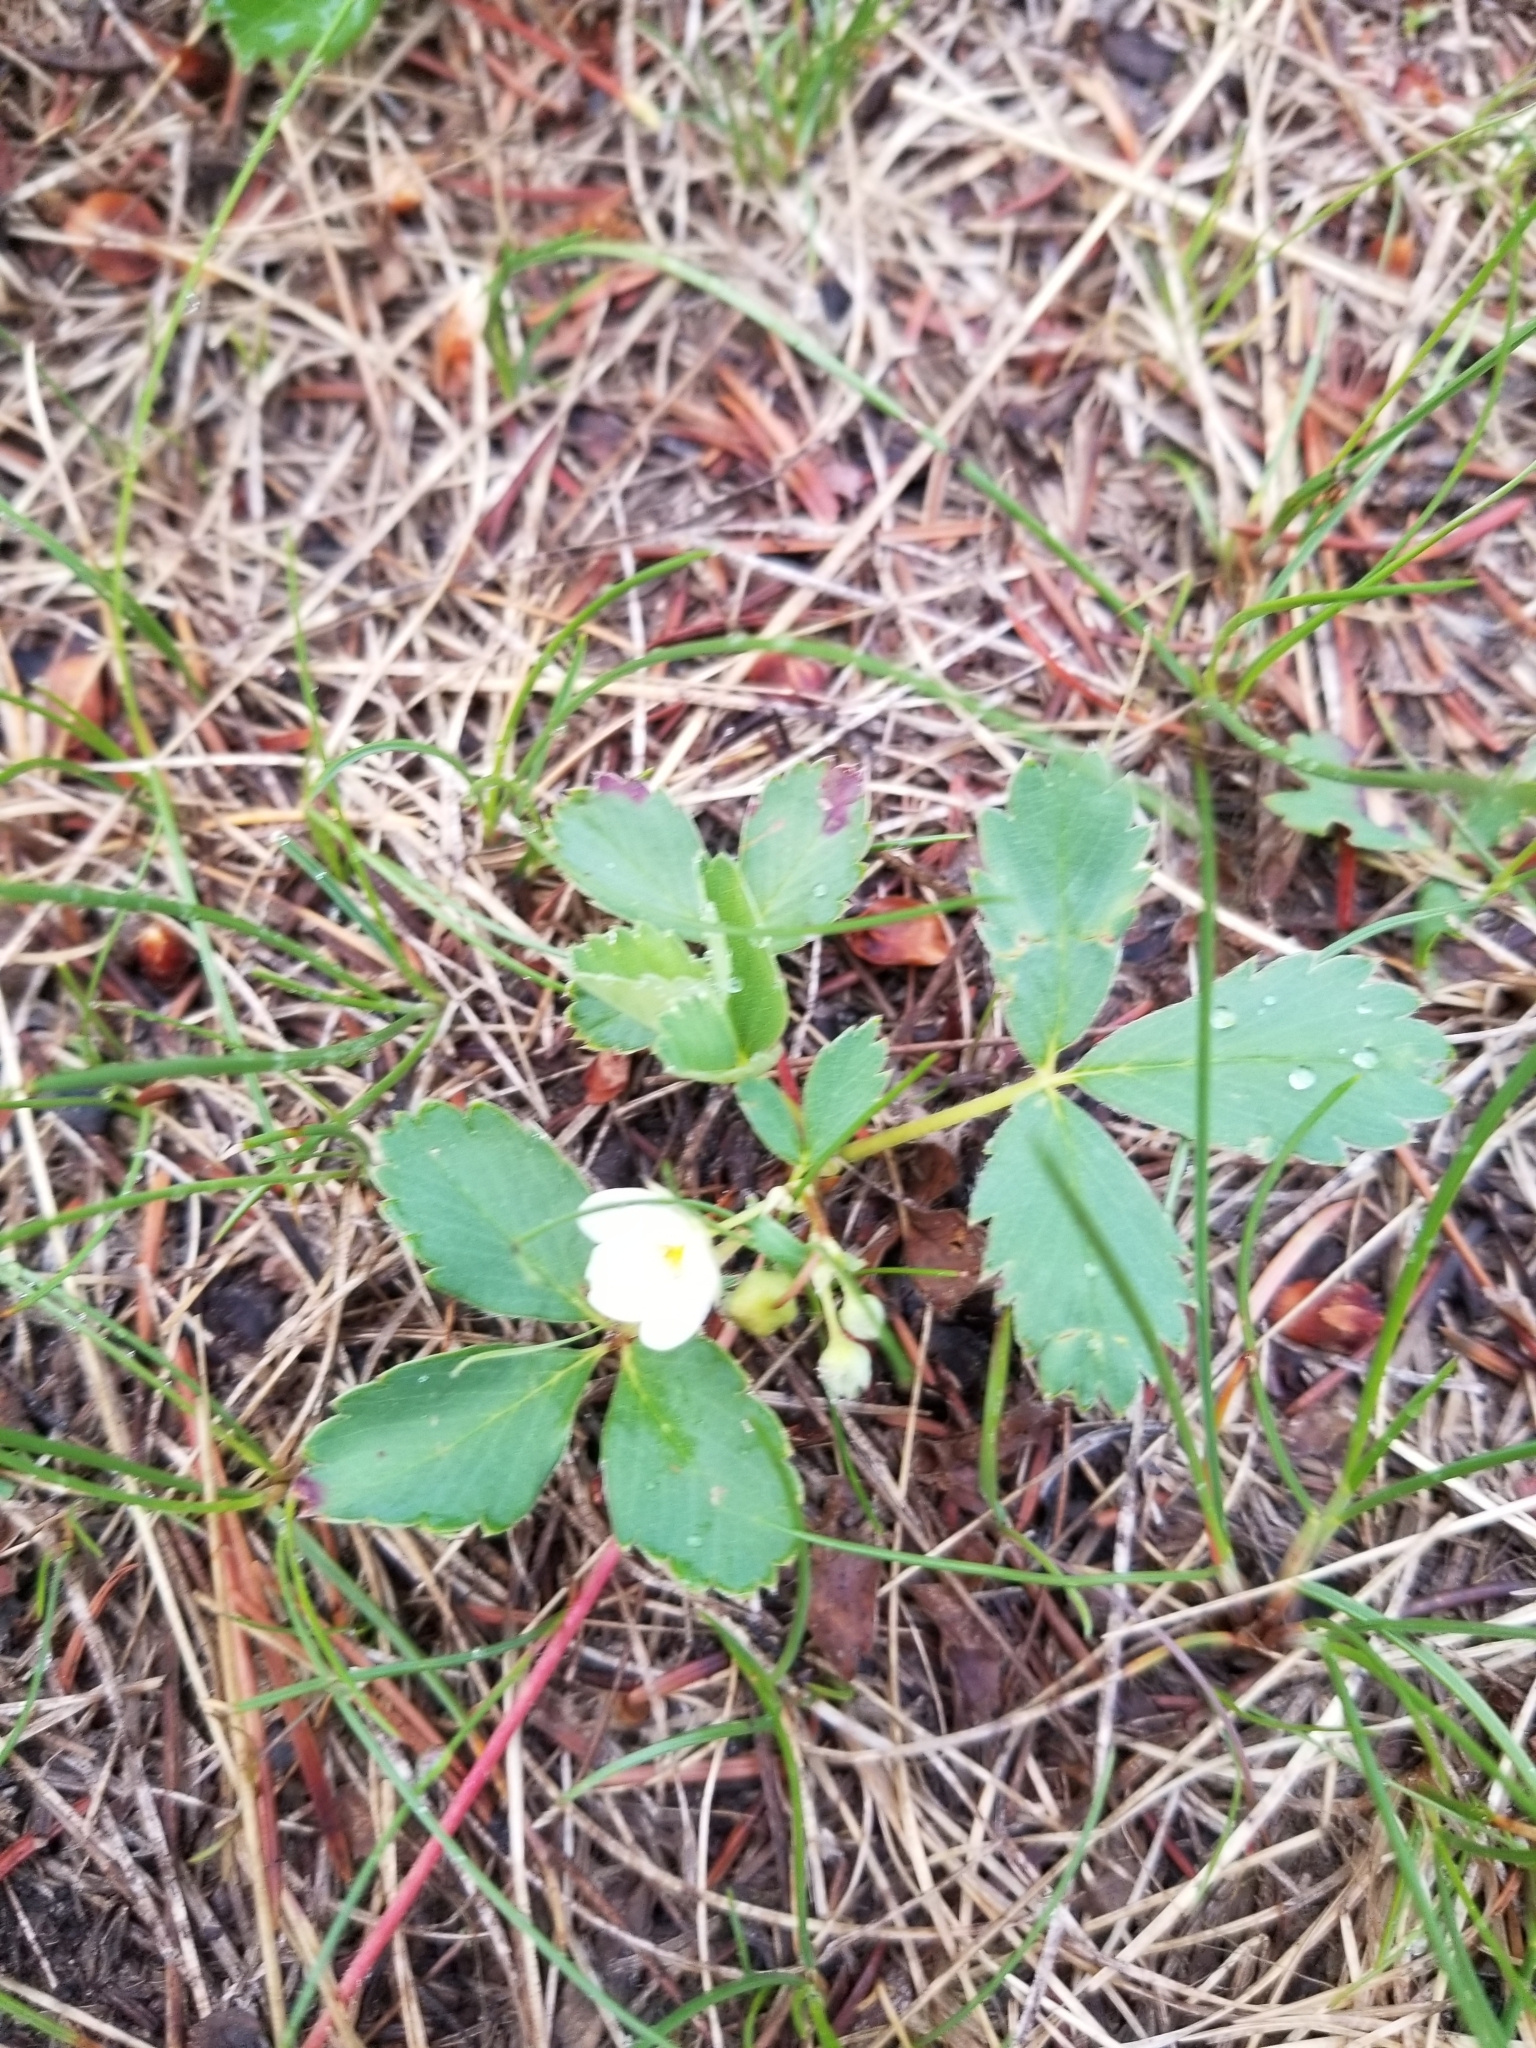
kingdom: Plantae
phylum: Tracheophyta
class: Magnoliopsida
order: Rosales
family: Rosaceae
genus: Fragaria
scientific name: Fragaria virginiana
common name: Thickleaved wild strawberry
